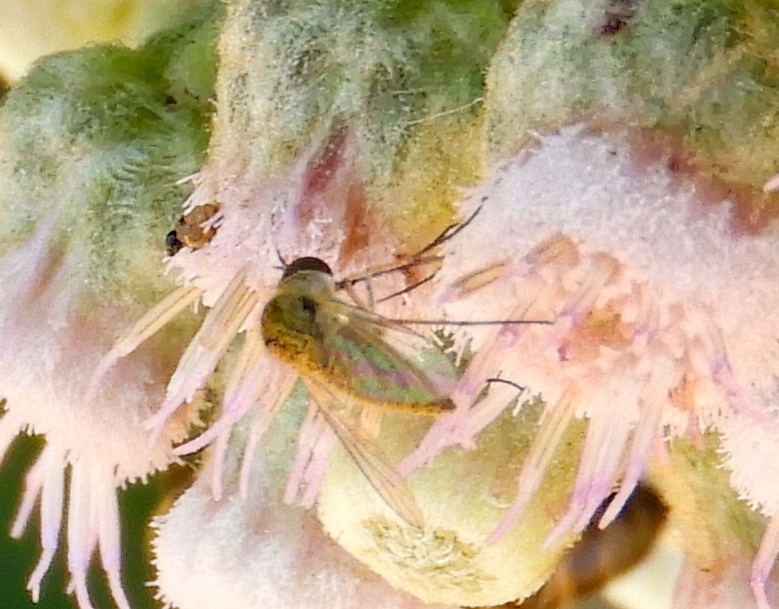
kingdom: Animalia
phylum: Arthropoda
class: Insecta
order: Diptera
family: Bombyliidae
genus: Geron
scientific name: Geron
